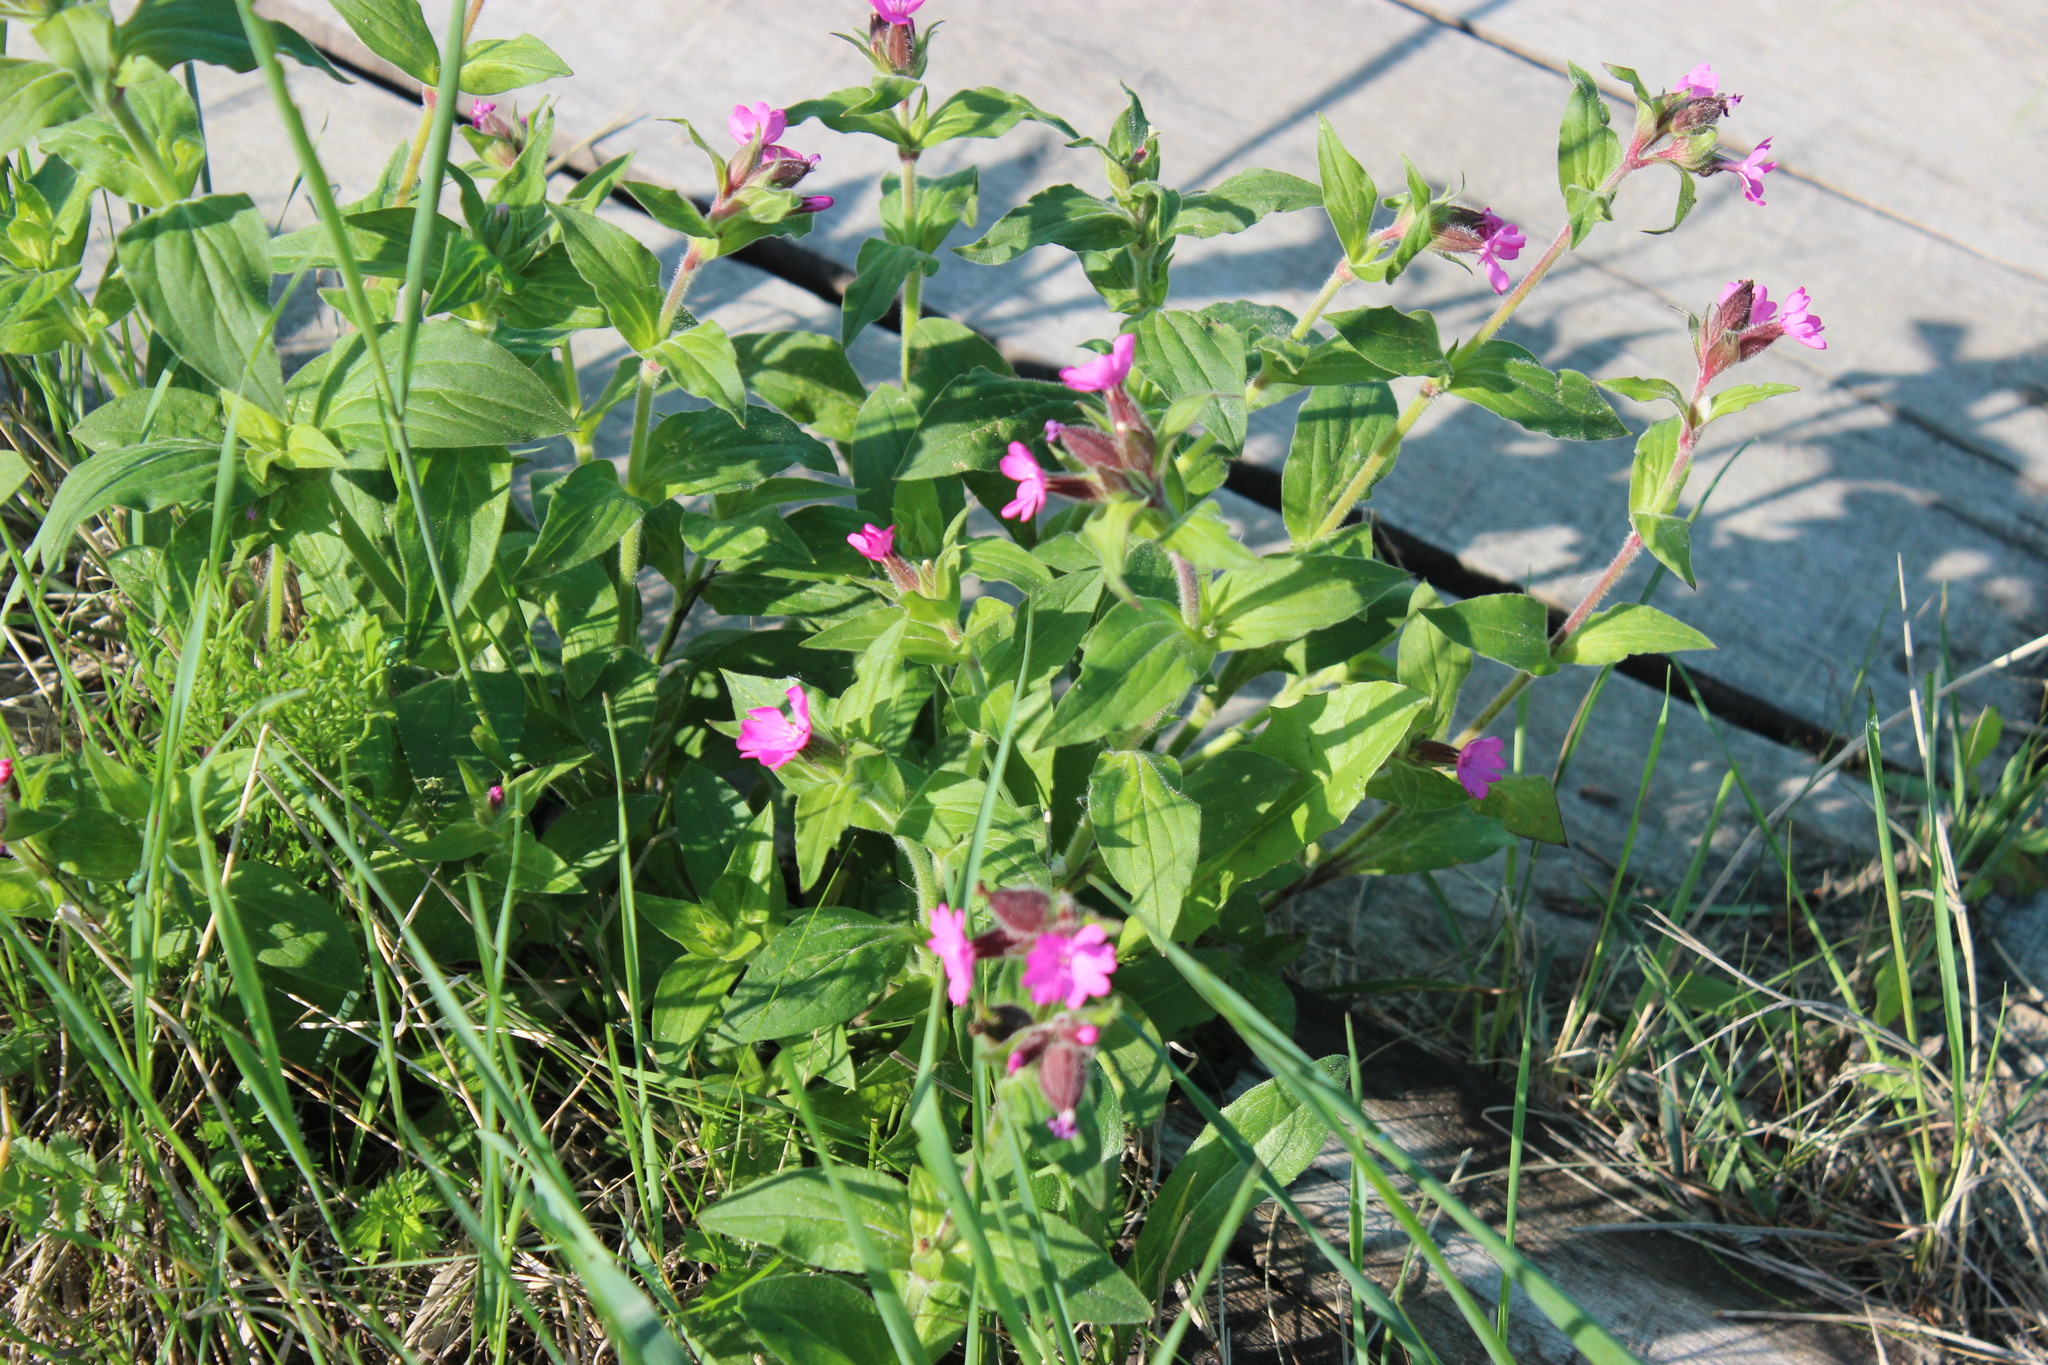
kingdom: Plantae
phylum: Tracheophyta
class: Magnoliopsida
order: Caryophyllales
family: Caryophyllaceae
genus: Silene
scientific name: Silene dioica
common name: Red campion
